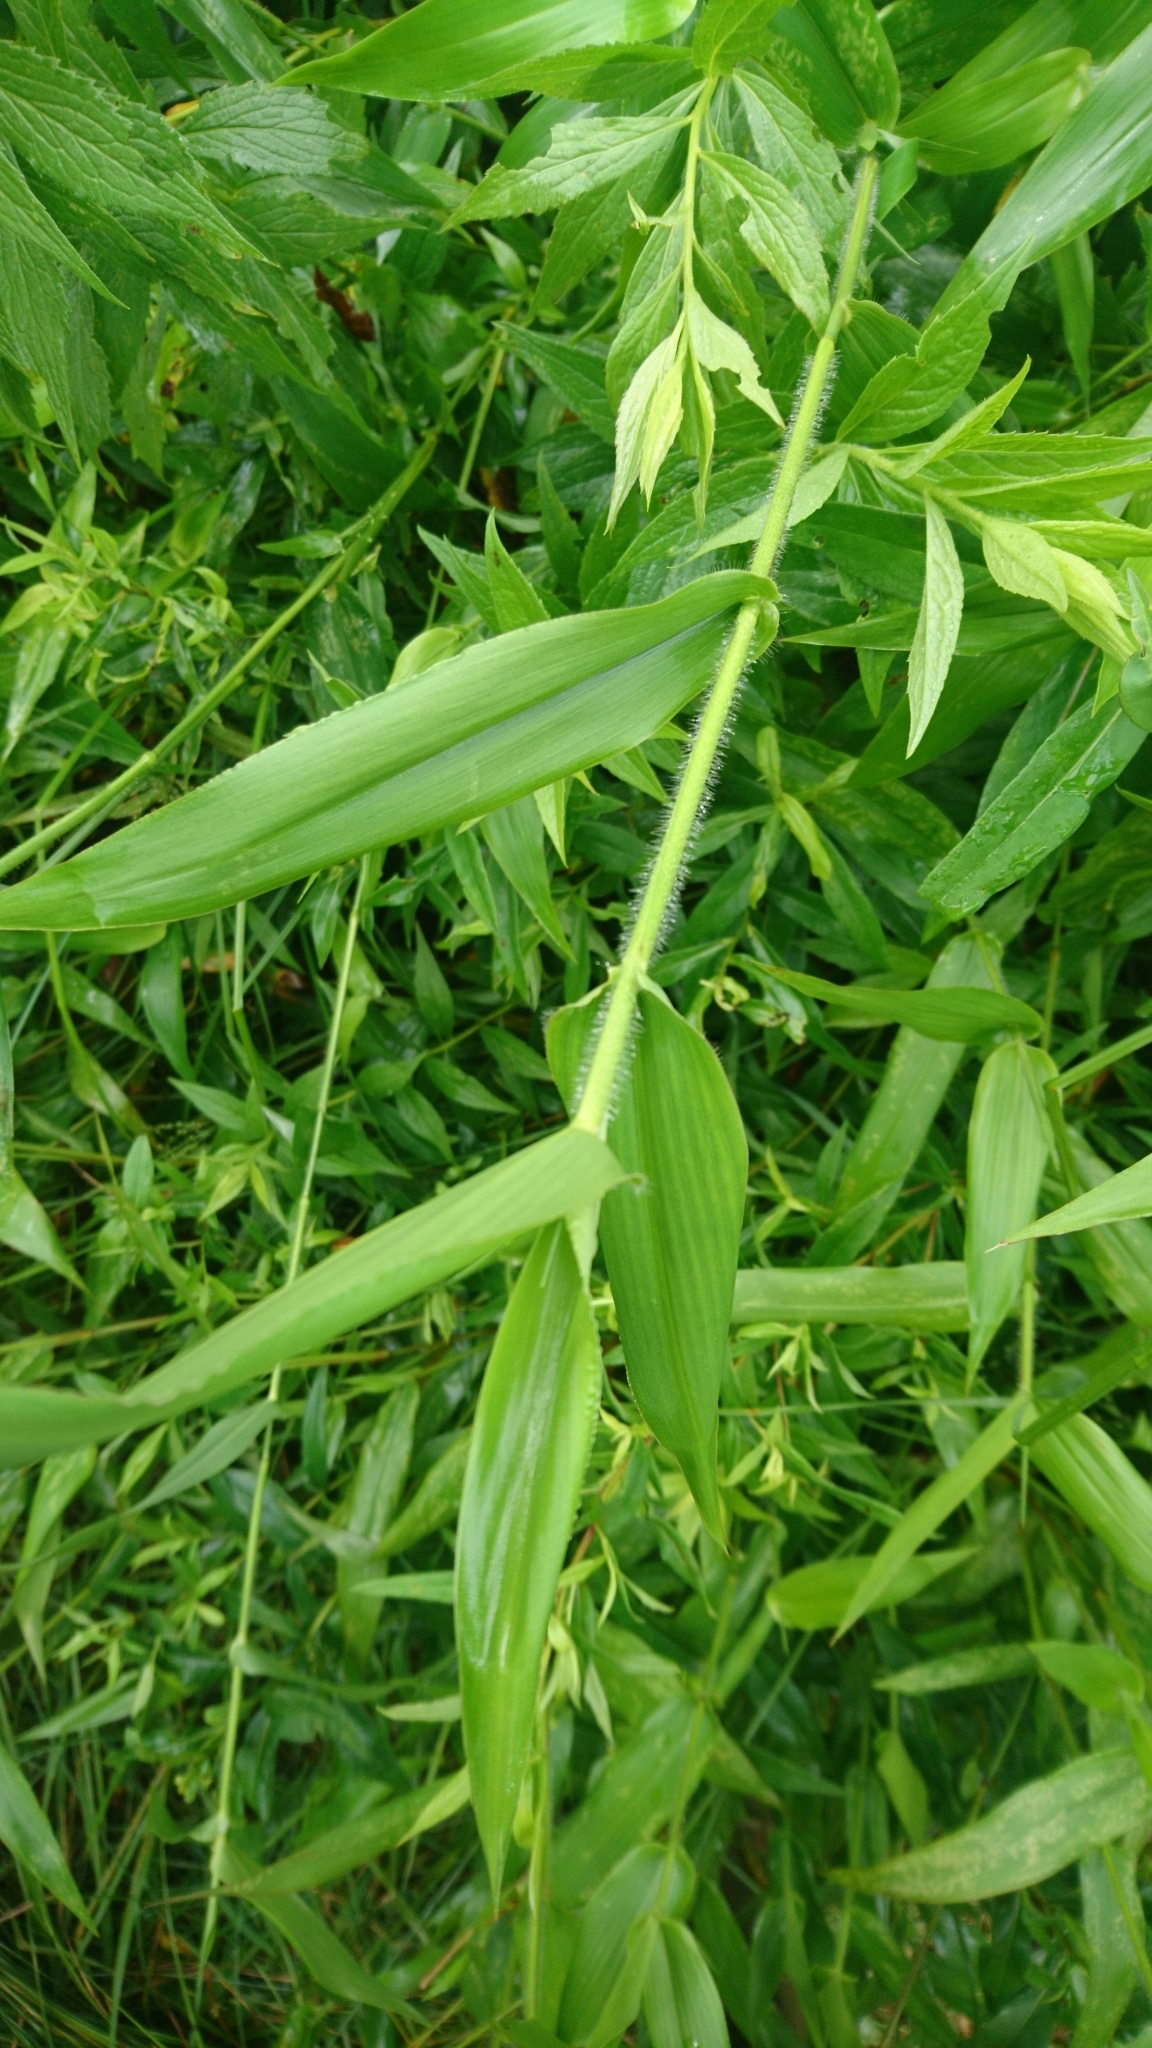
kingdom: Plantae
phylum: Tracheophyta
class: Liliopsida
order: Poales
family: Poaceae
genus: Dichanthelium
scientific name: Dichanthelium clandestinum
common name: Deer-tongue grass
